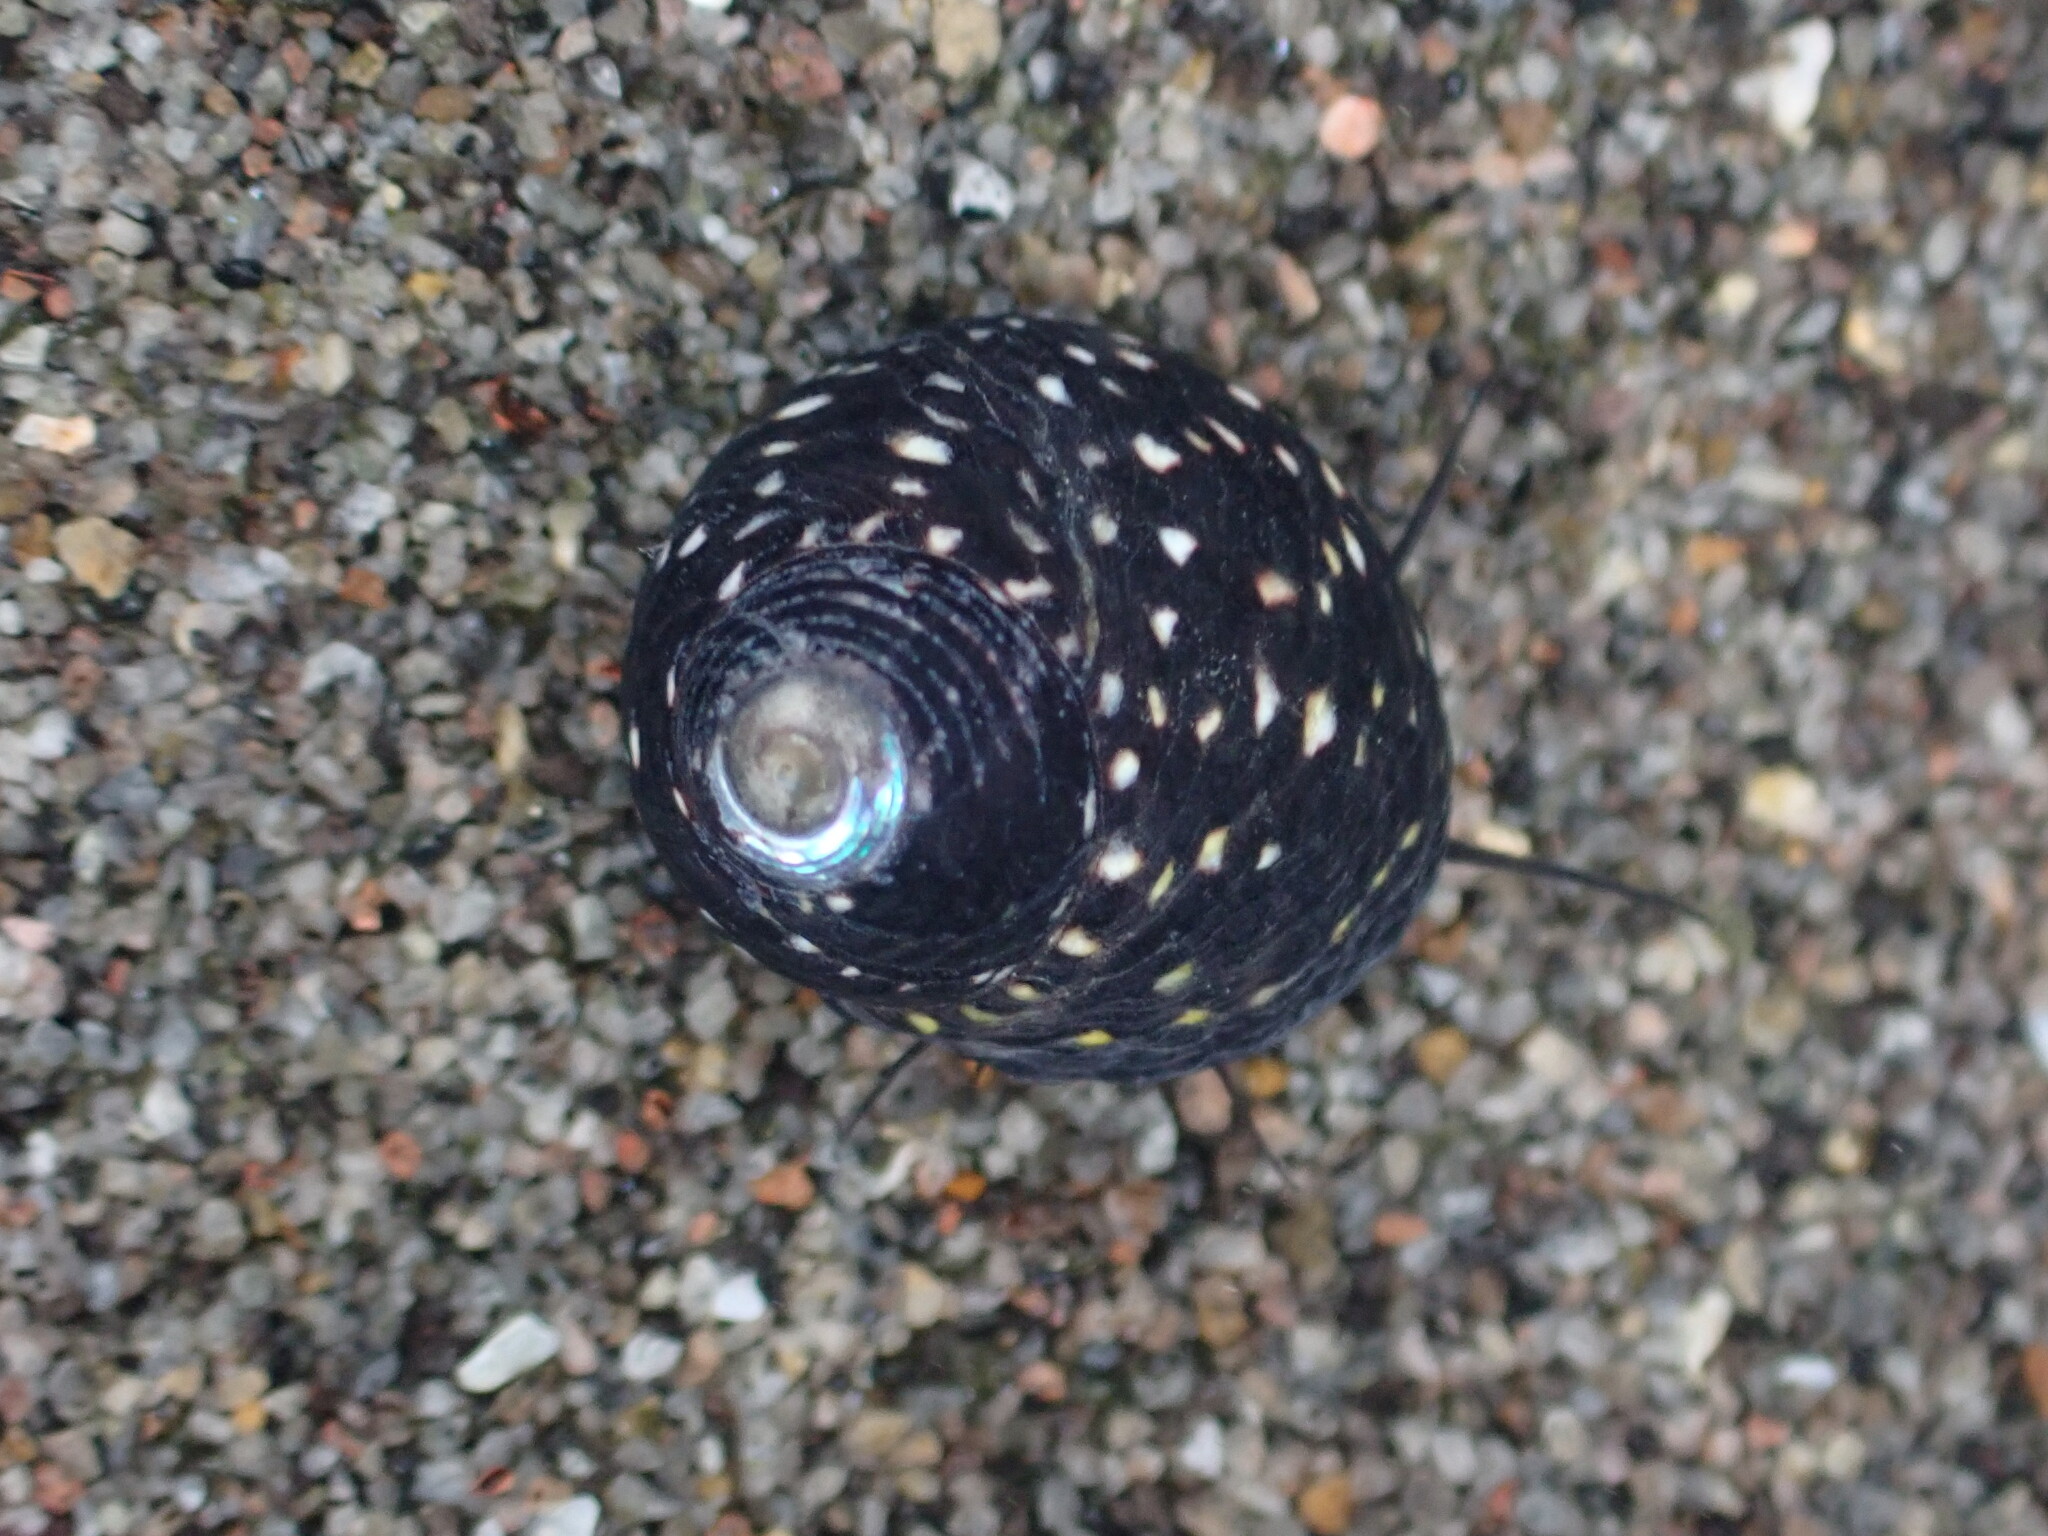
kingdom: Animalia
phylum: Mollusca
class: Gastropoda
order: Trochida
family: Trochidae
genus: Diloma
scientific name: Diloma aridum
